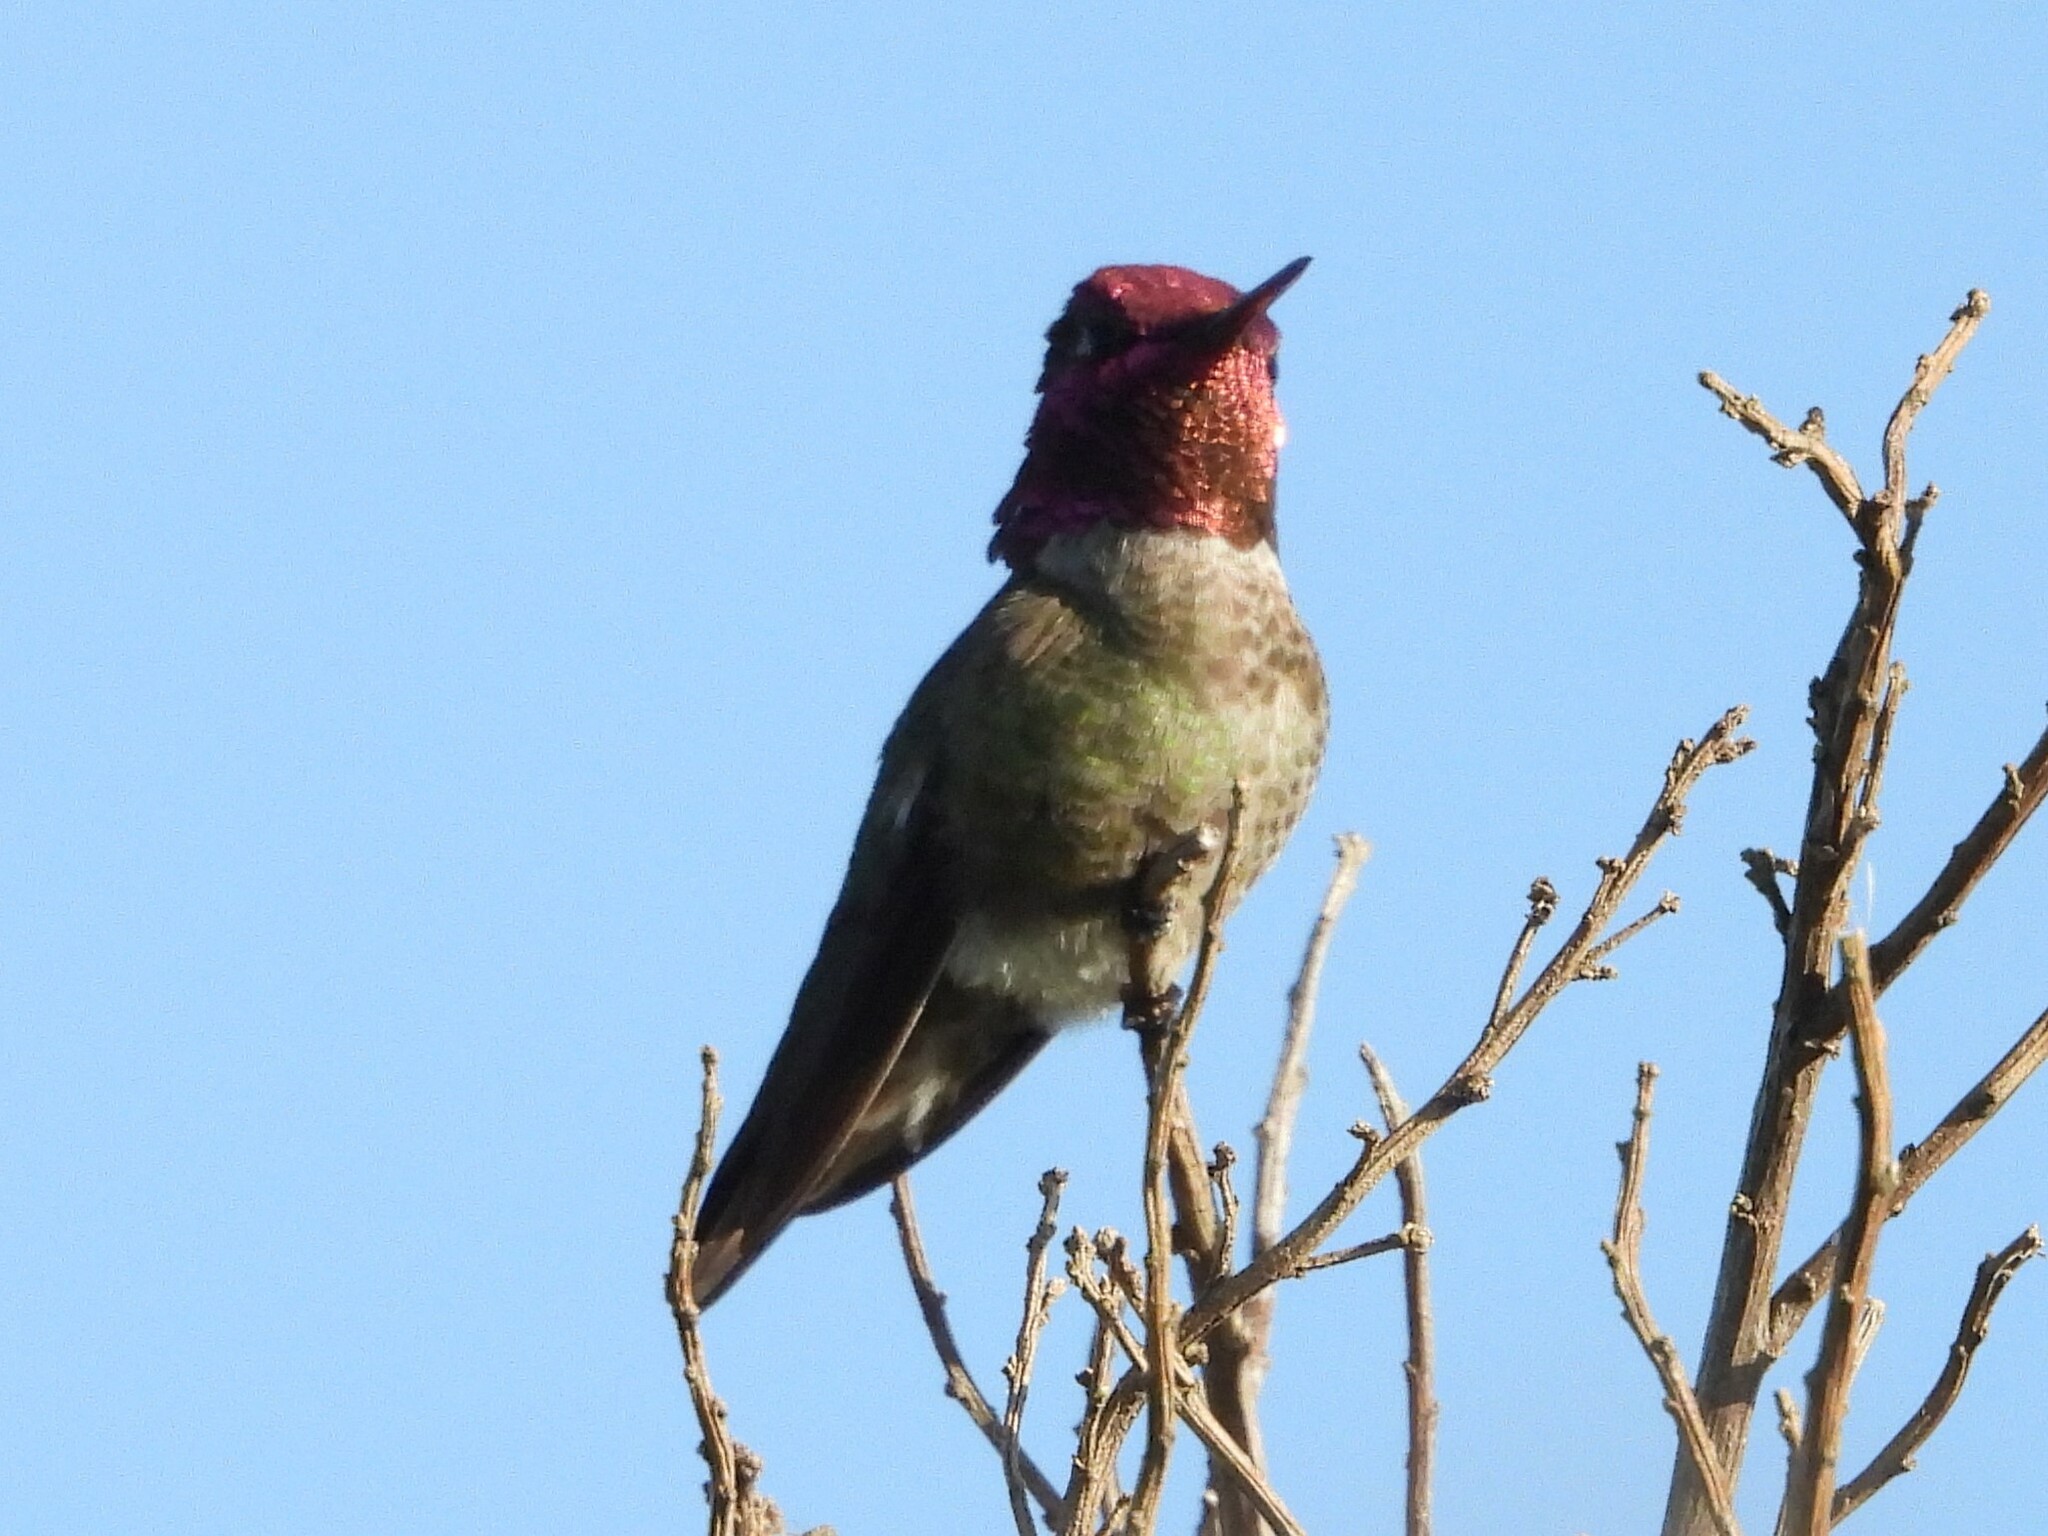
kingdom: Animalia
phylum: Chordata
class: Aves
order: Apodiformes
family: Trochilidae
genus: Calypte
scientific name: Calypte anna
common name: Anna's hummingbird
